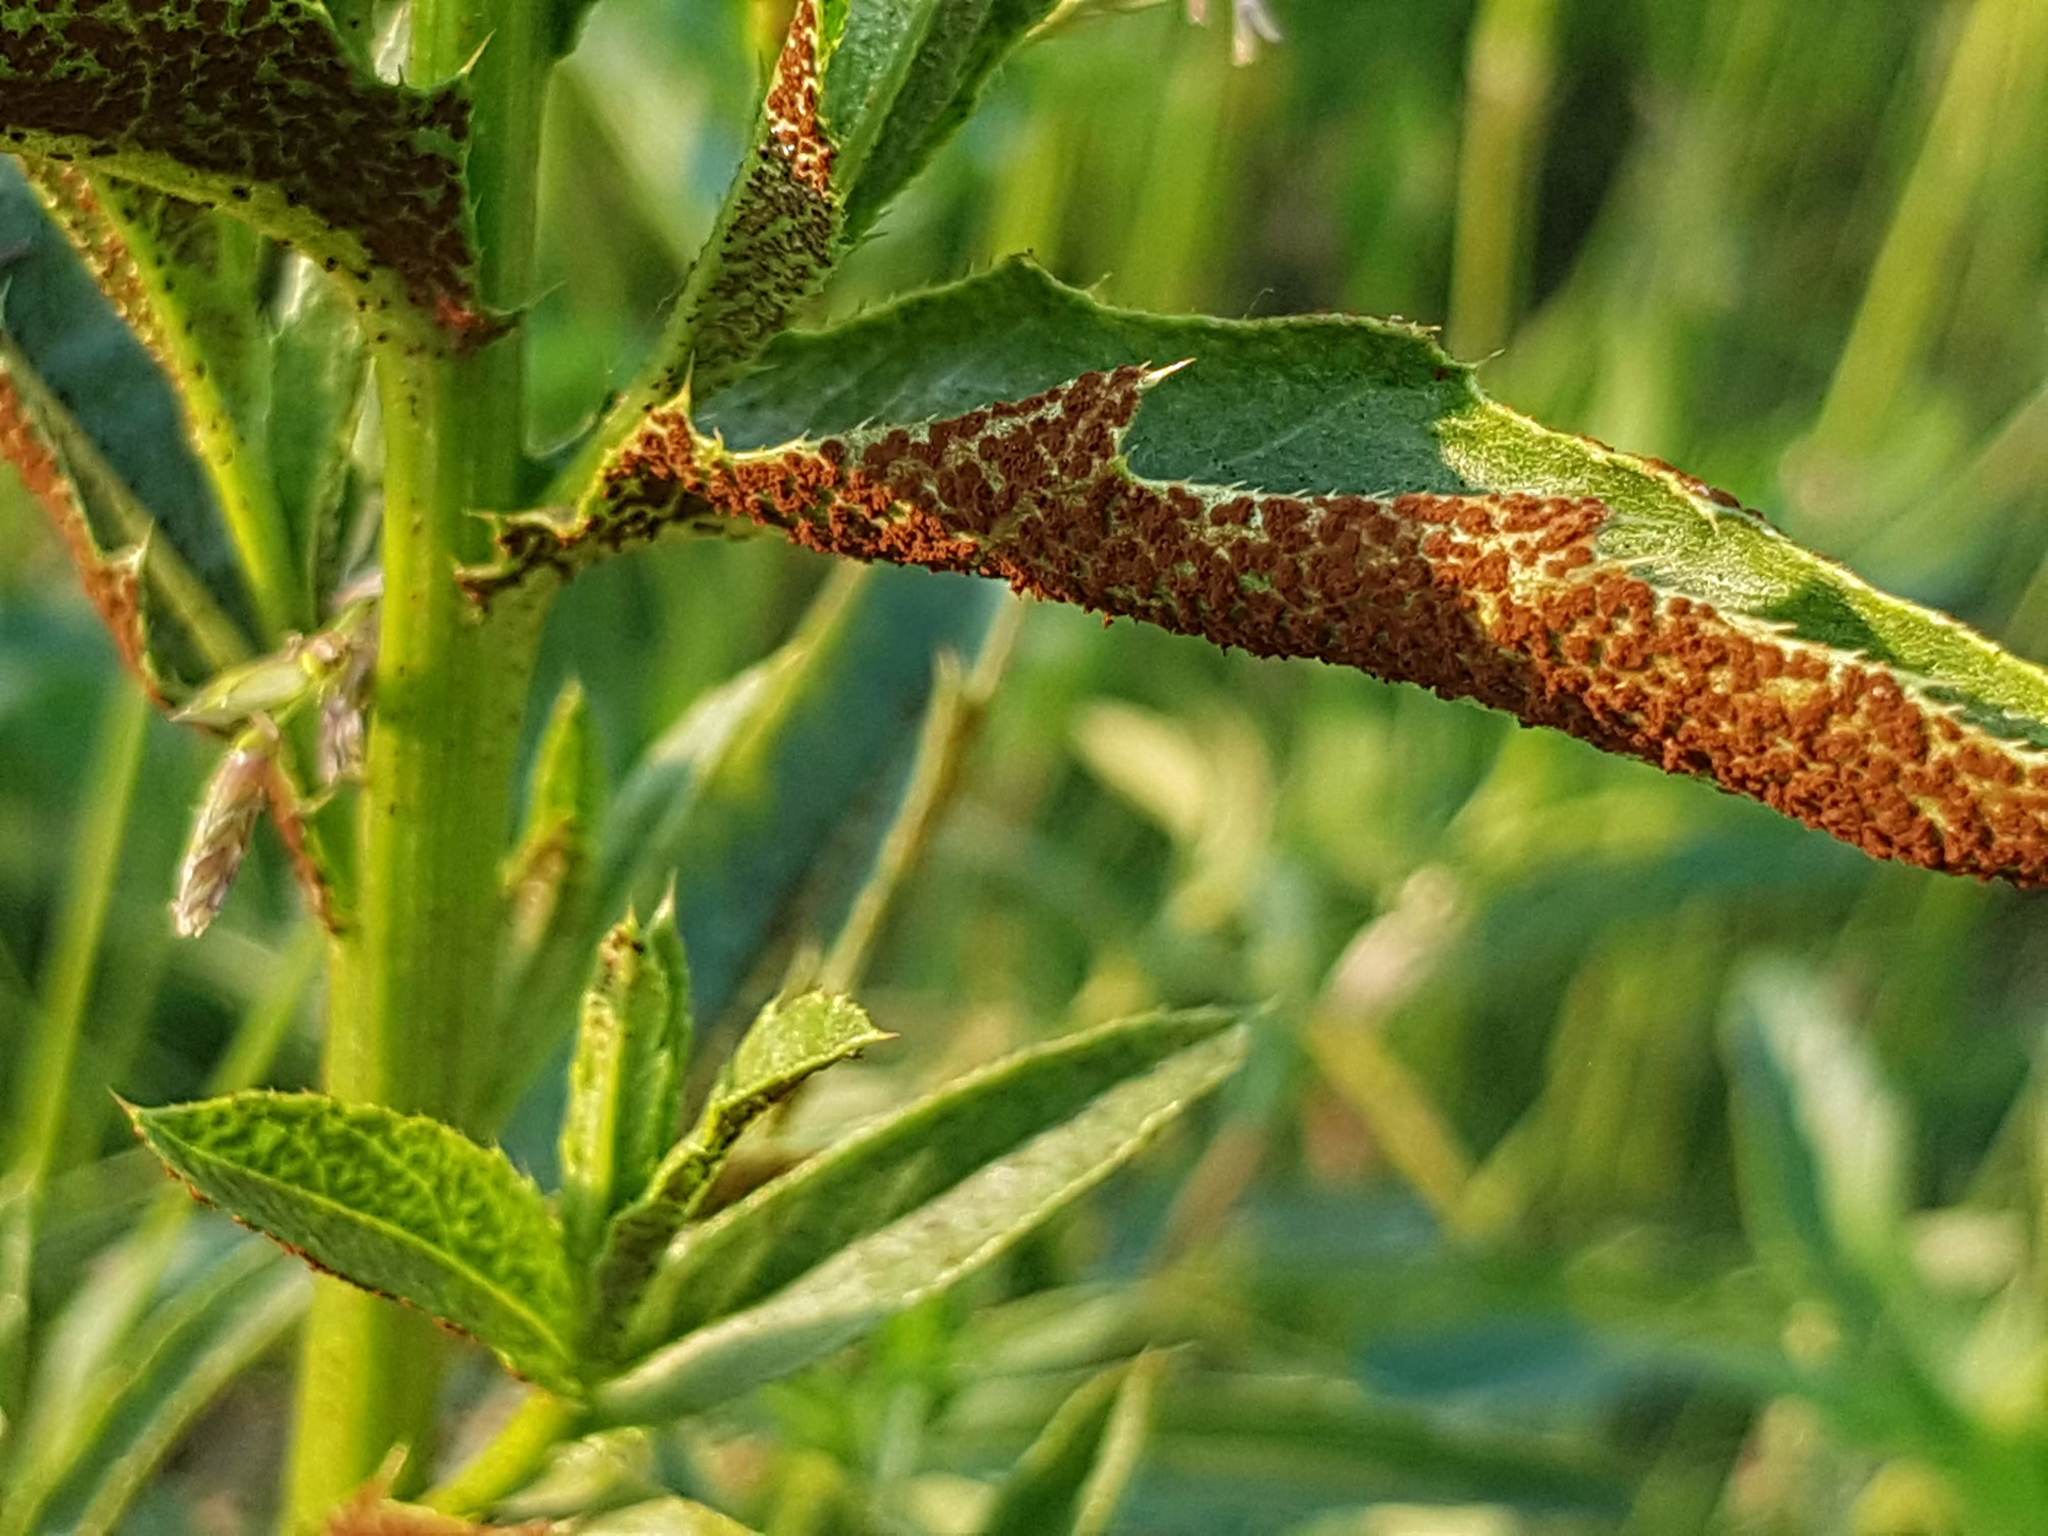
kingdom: Fungi
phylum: Basidiomycota
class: Pucciniomycetes
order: Pucciniales
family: Pucciniaceae
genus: Puccinia
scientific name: Puccinia suaveolens
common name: Thistle rust
